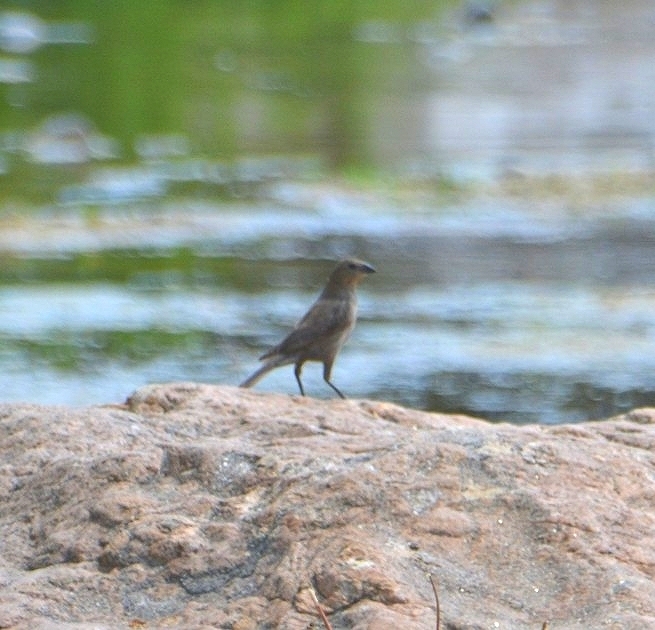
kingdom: Animalia
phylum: Chordata
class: Aves
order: Passeriformes
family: Icteridae
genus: Molothrus
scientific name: Molothrus bonariensis
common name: Shiny cowbird
